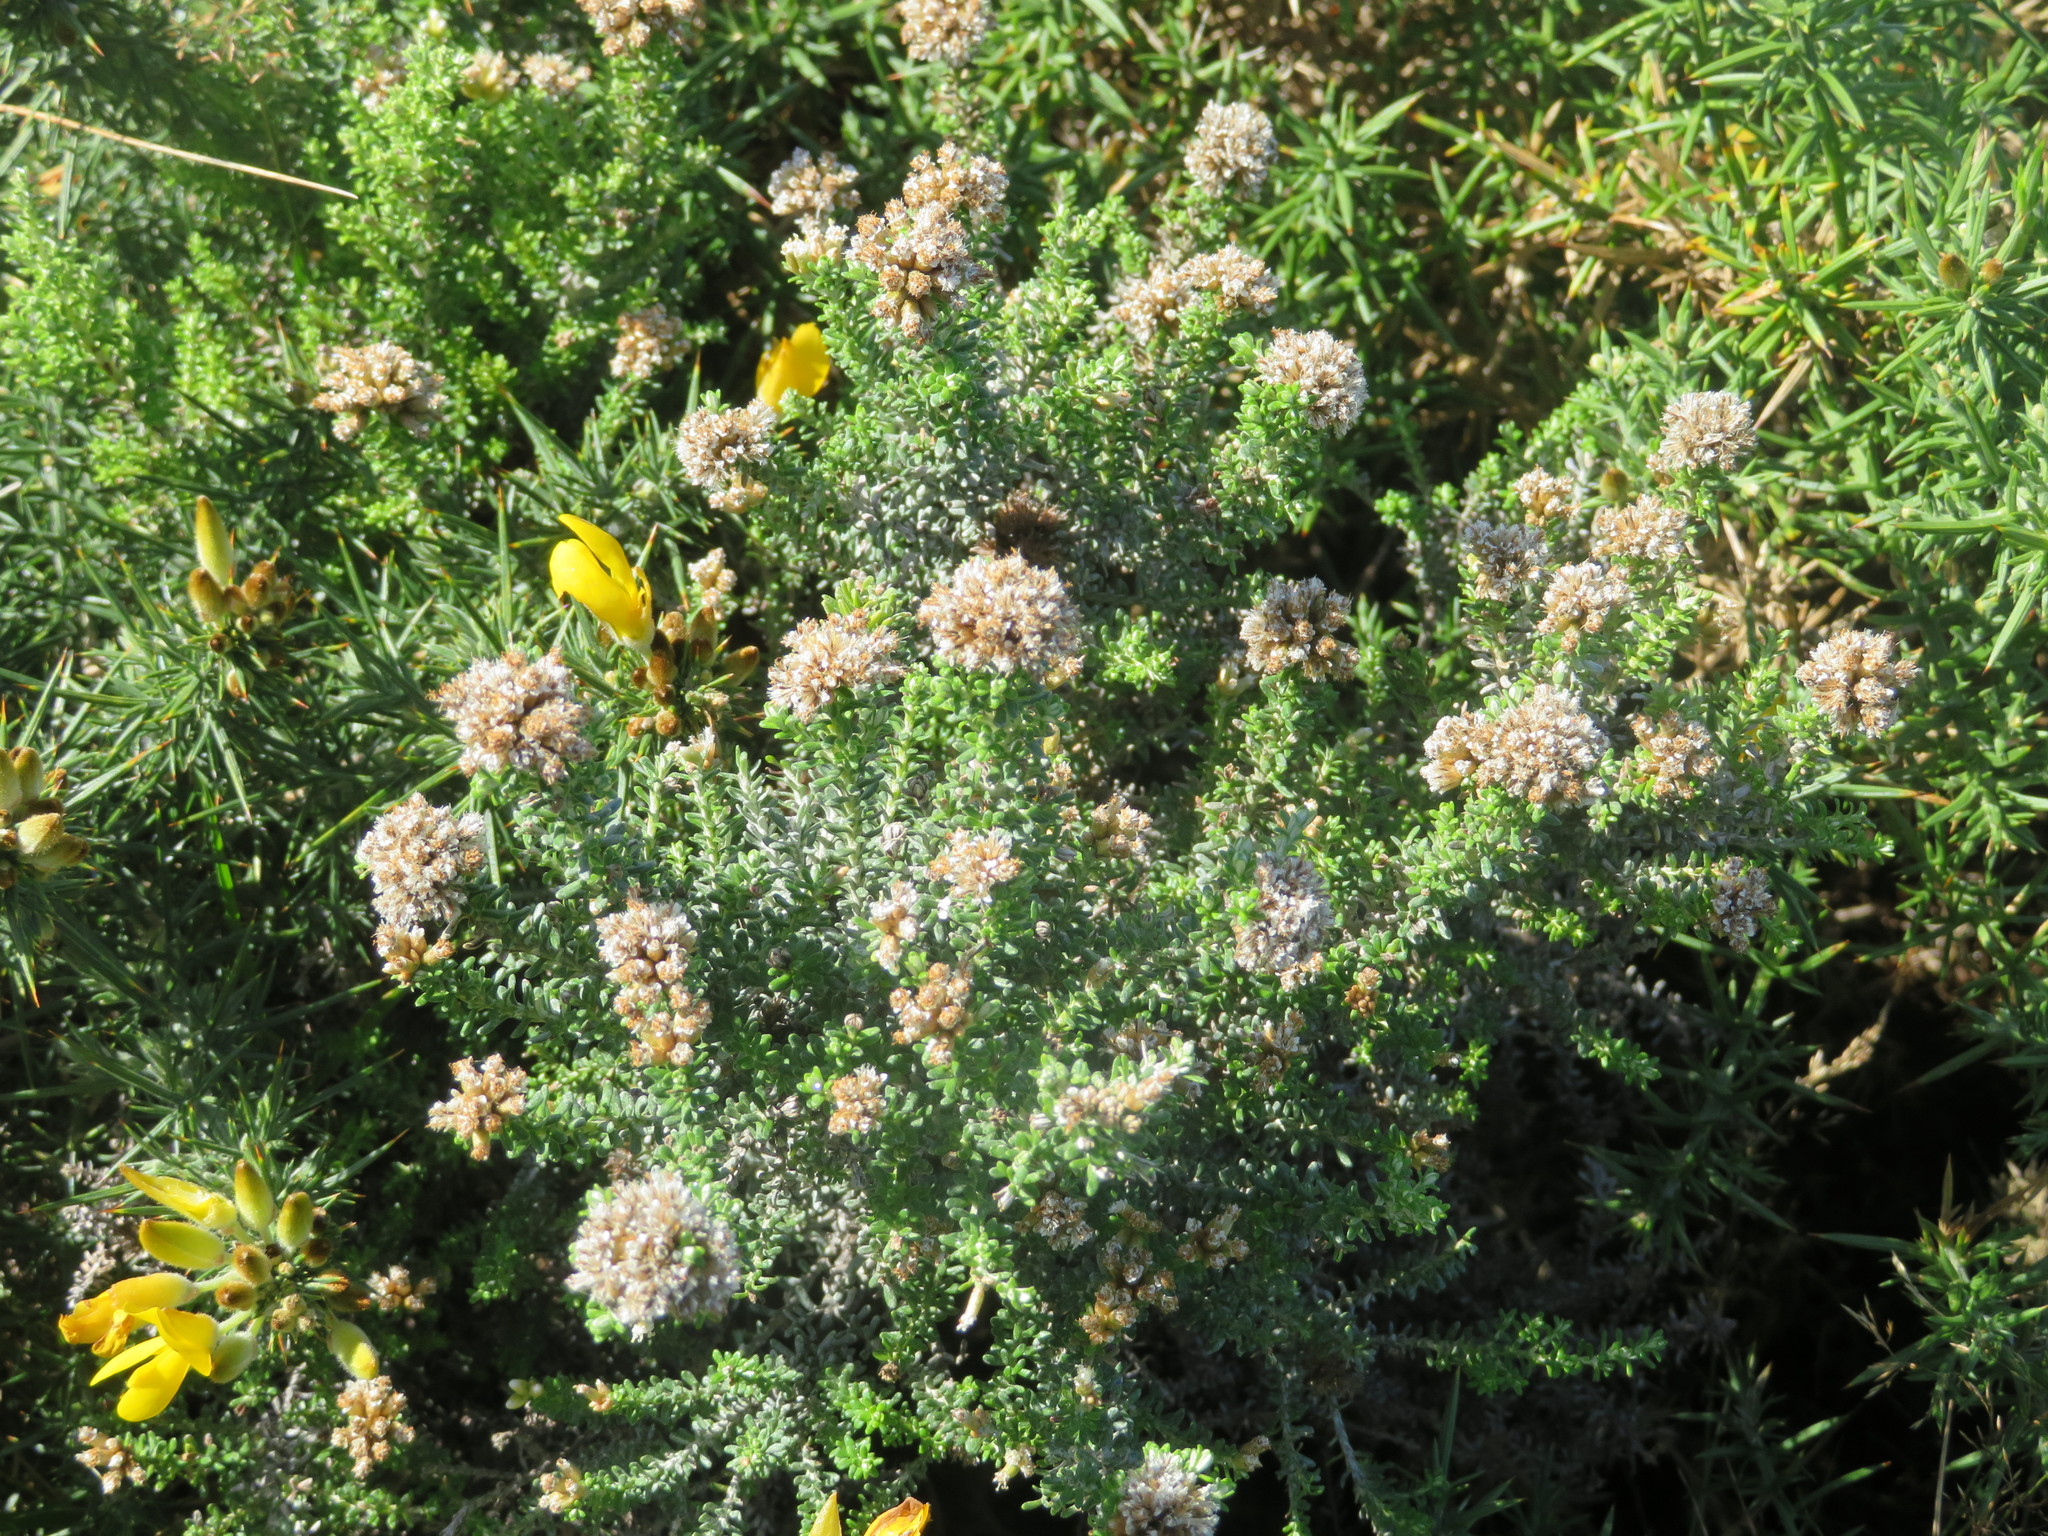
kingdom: Plantae
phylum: Tracheophyta
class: Magnoliopsida
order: Asterales
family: Asteraceae
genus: Ozothamnus
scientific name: Ozothamnus leptophyllus
